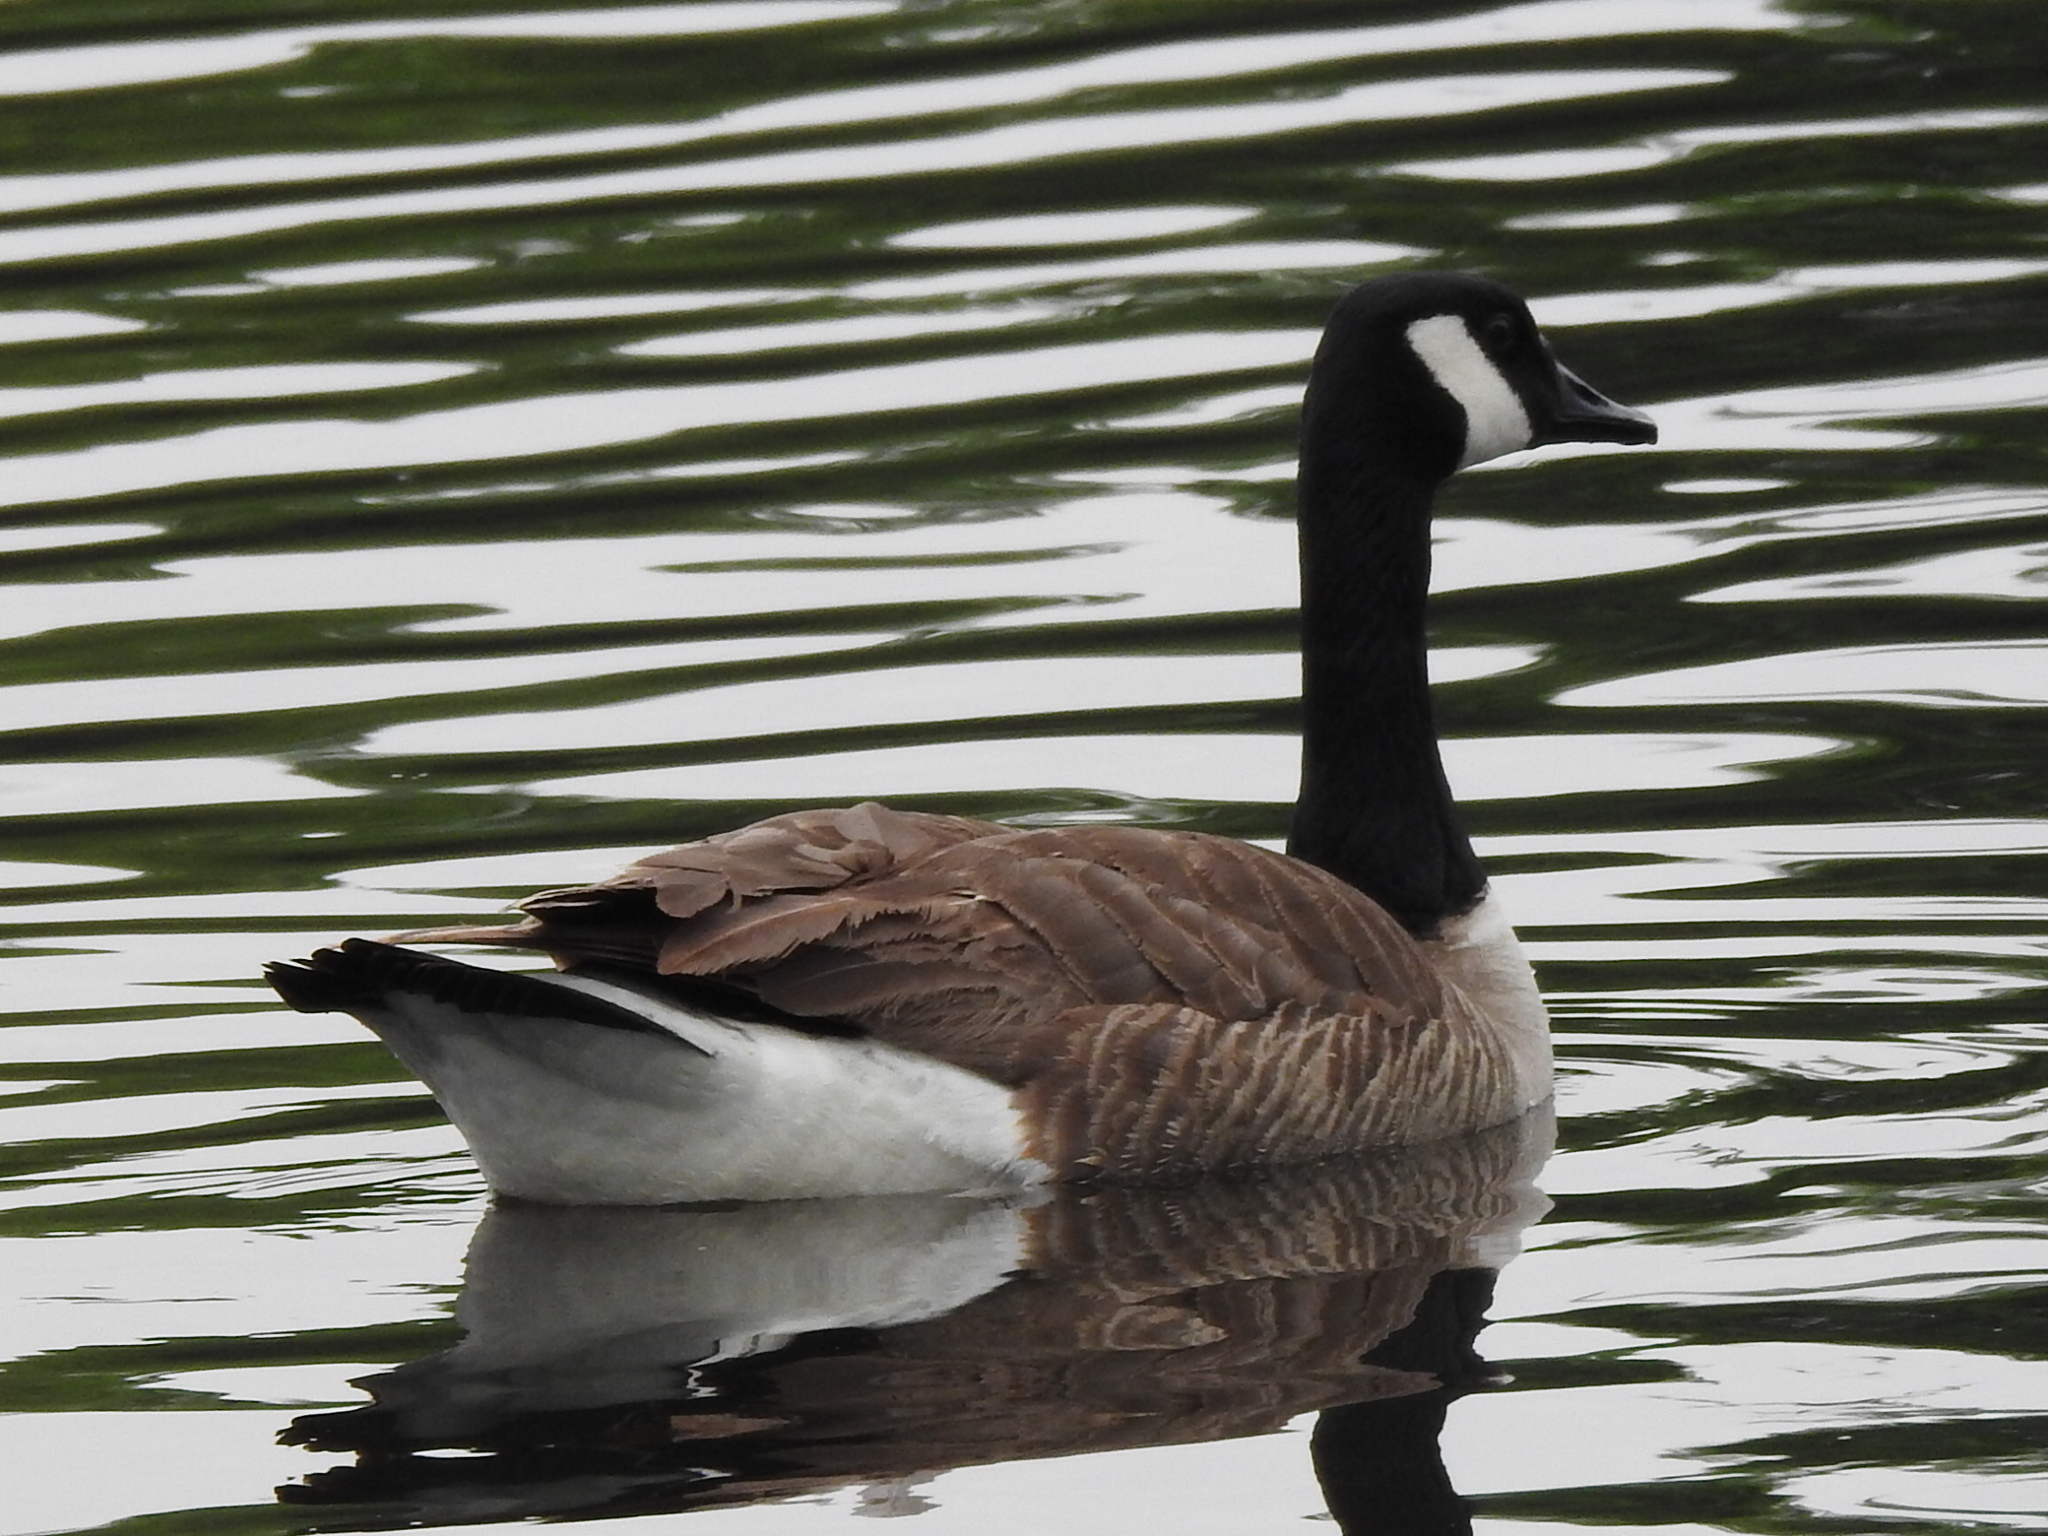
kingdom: Animalia
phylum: Chordata
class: Aves
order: Anseriformes
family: Anatidae
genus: Branta
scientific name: Branta canadensis
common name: Canada goose
